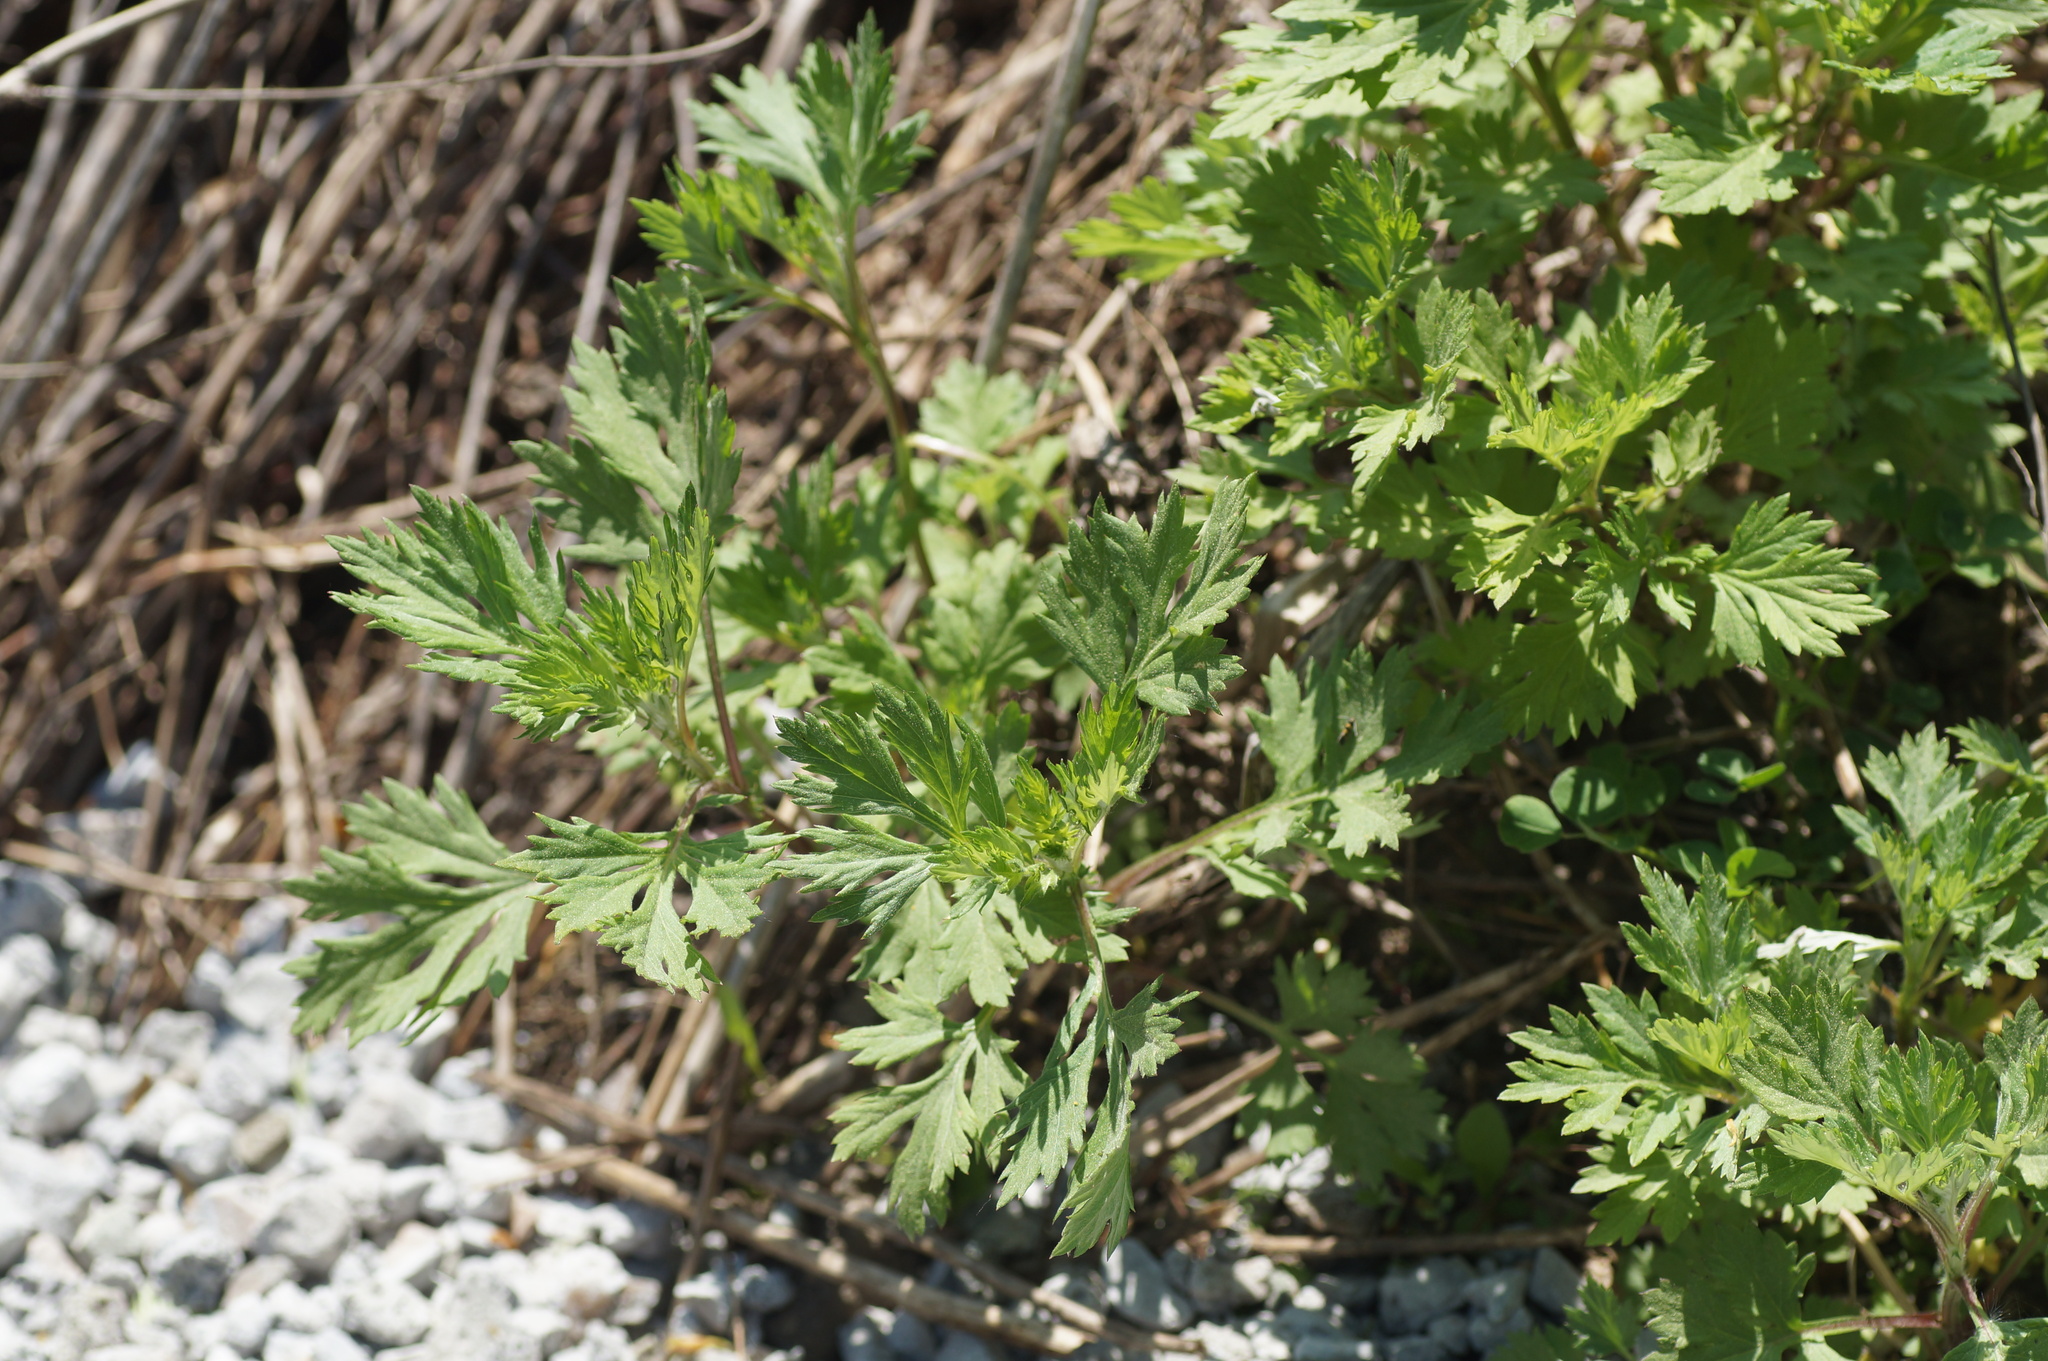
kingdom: Plantae
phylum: Tracheophyta
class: Magnoliopsida
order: Asterales
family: Asteraceae
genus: Artemisia
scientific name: Artemisia vulgaris
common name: Mugwort
